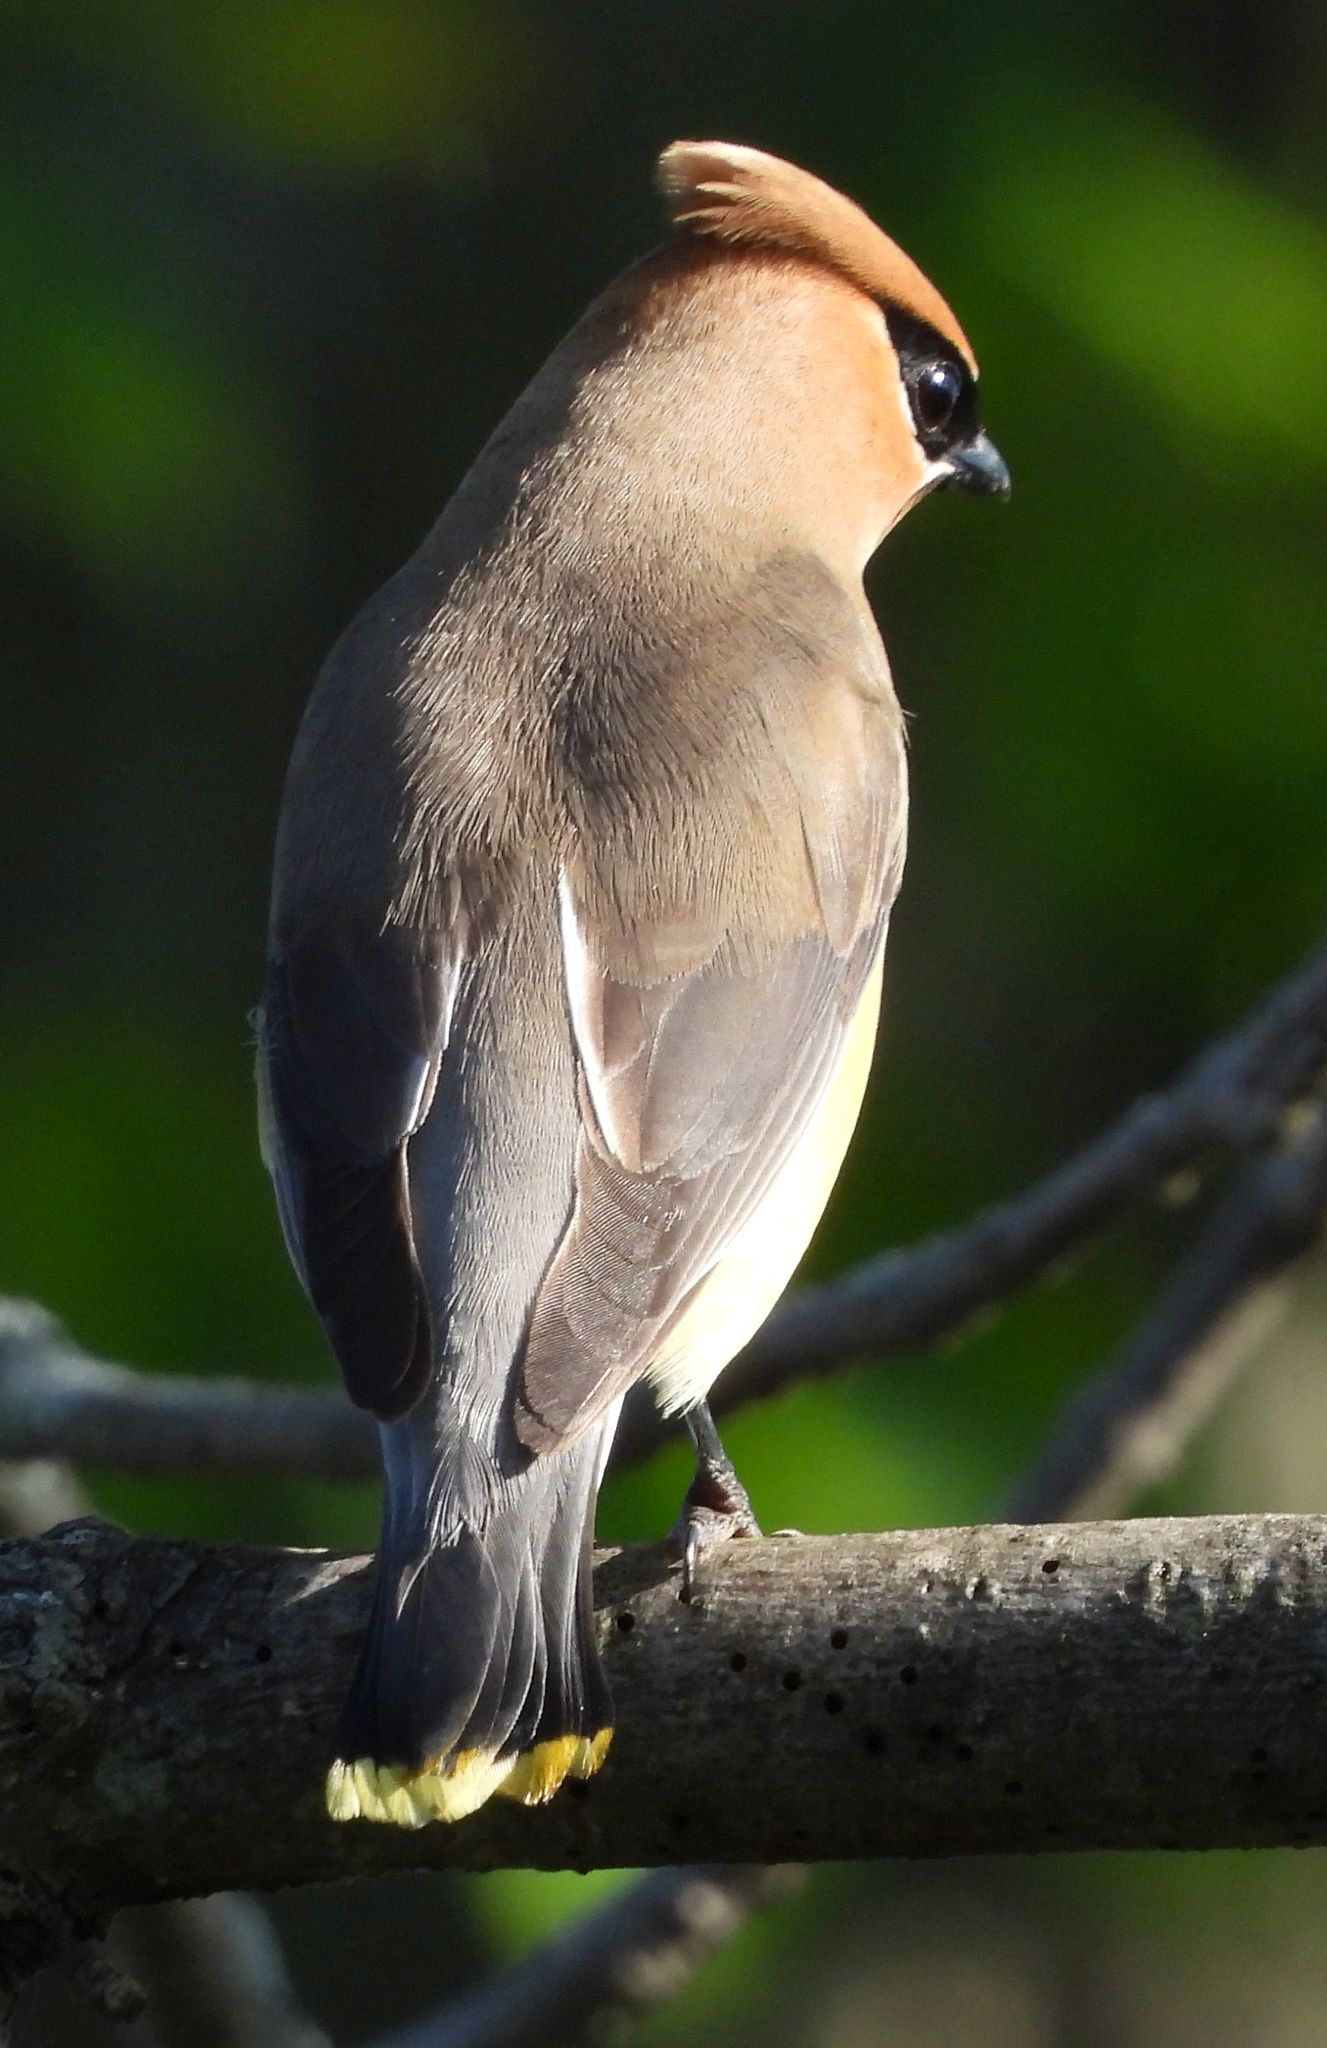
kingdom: Animalia
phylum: Chordata
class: Aves
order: Passeriformes
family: Bombycillidae
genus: Bombycilla
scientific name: Bombycilla cedrorum
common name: Cedar waxwing
